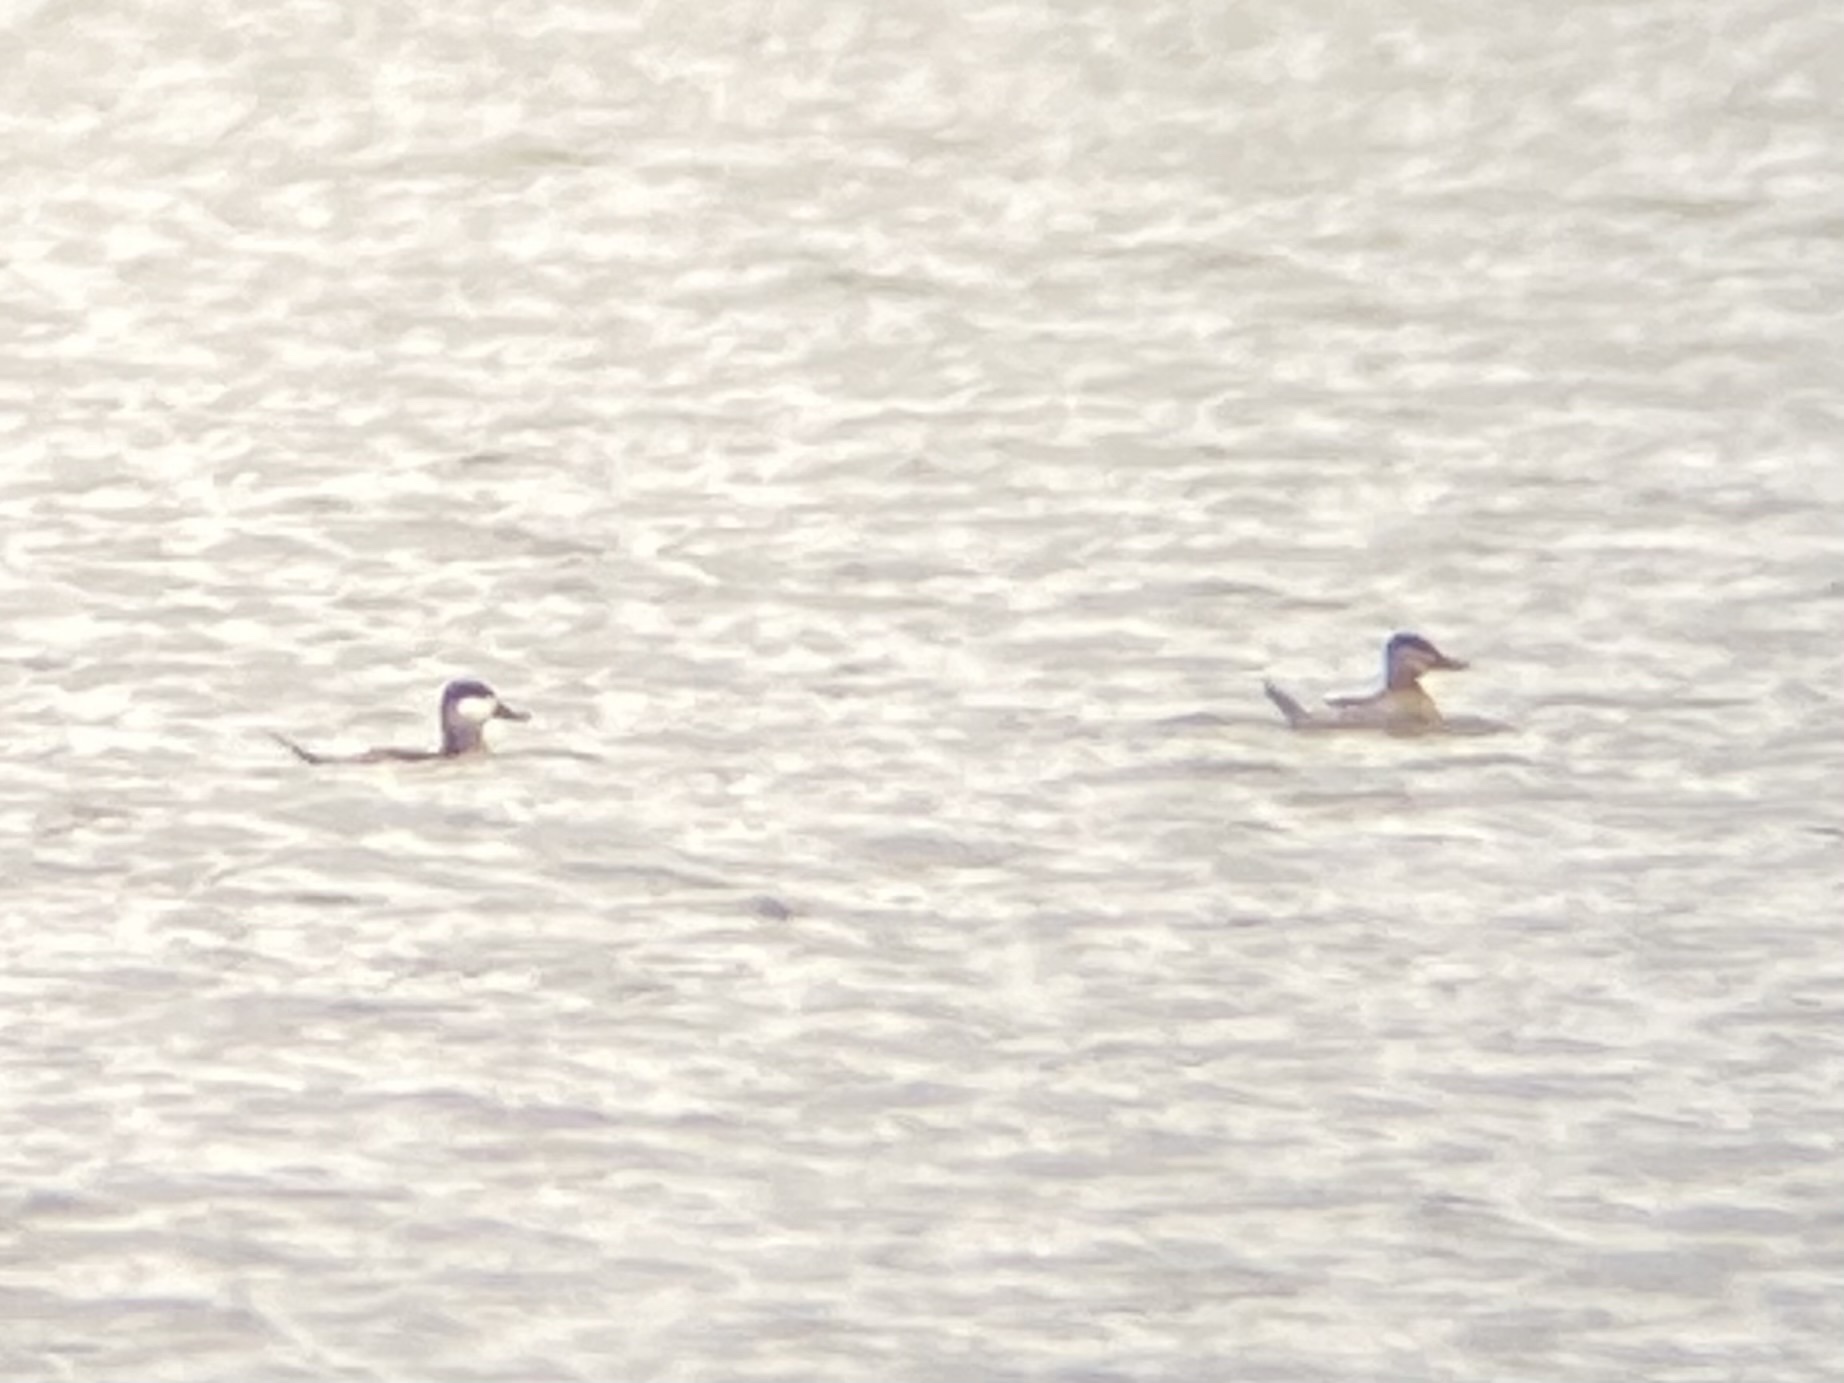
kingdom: Animalia
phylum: Chordata
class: Aves
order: Anseriformes
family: Anatidae
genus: Oxyura
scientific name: Oxyura jamaicensis
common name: Ruddy duck
